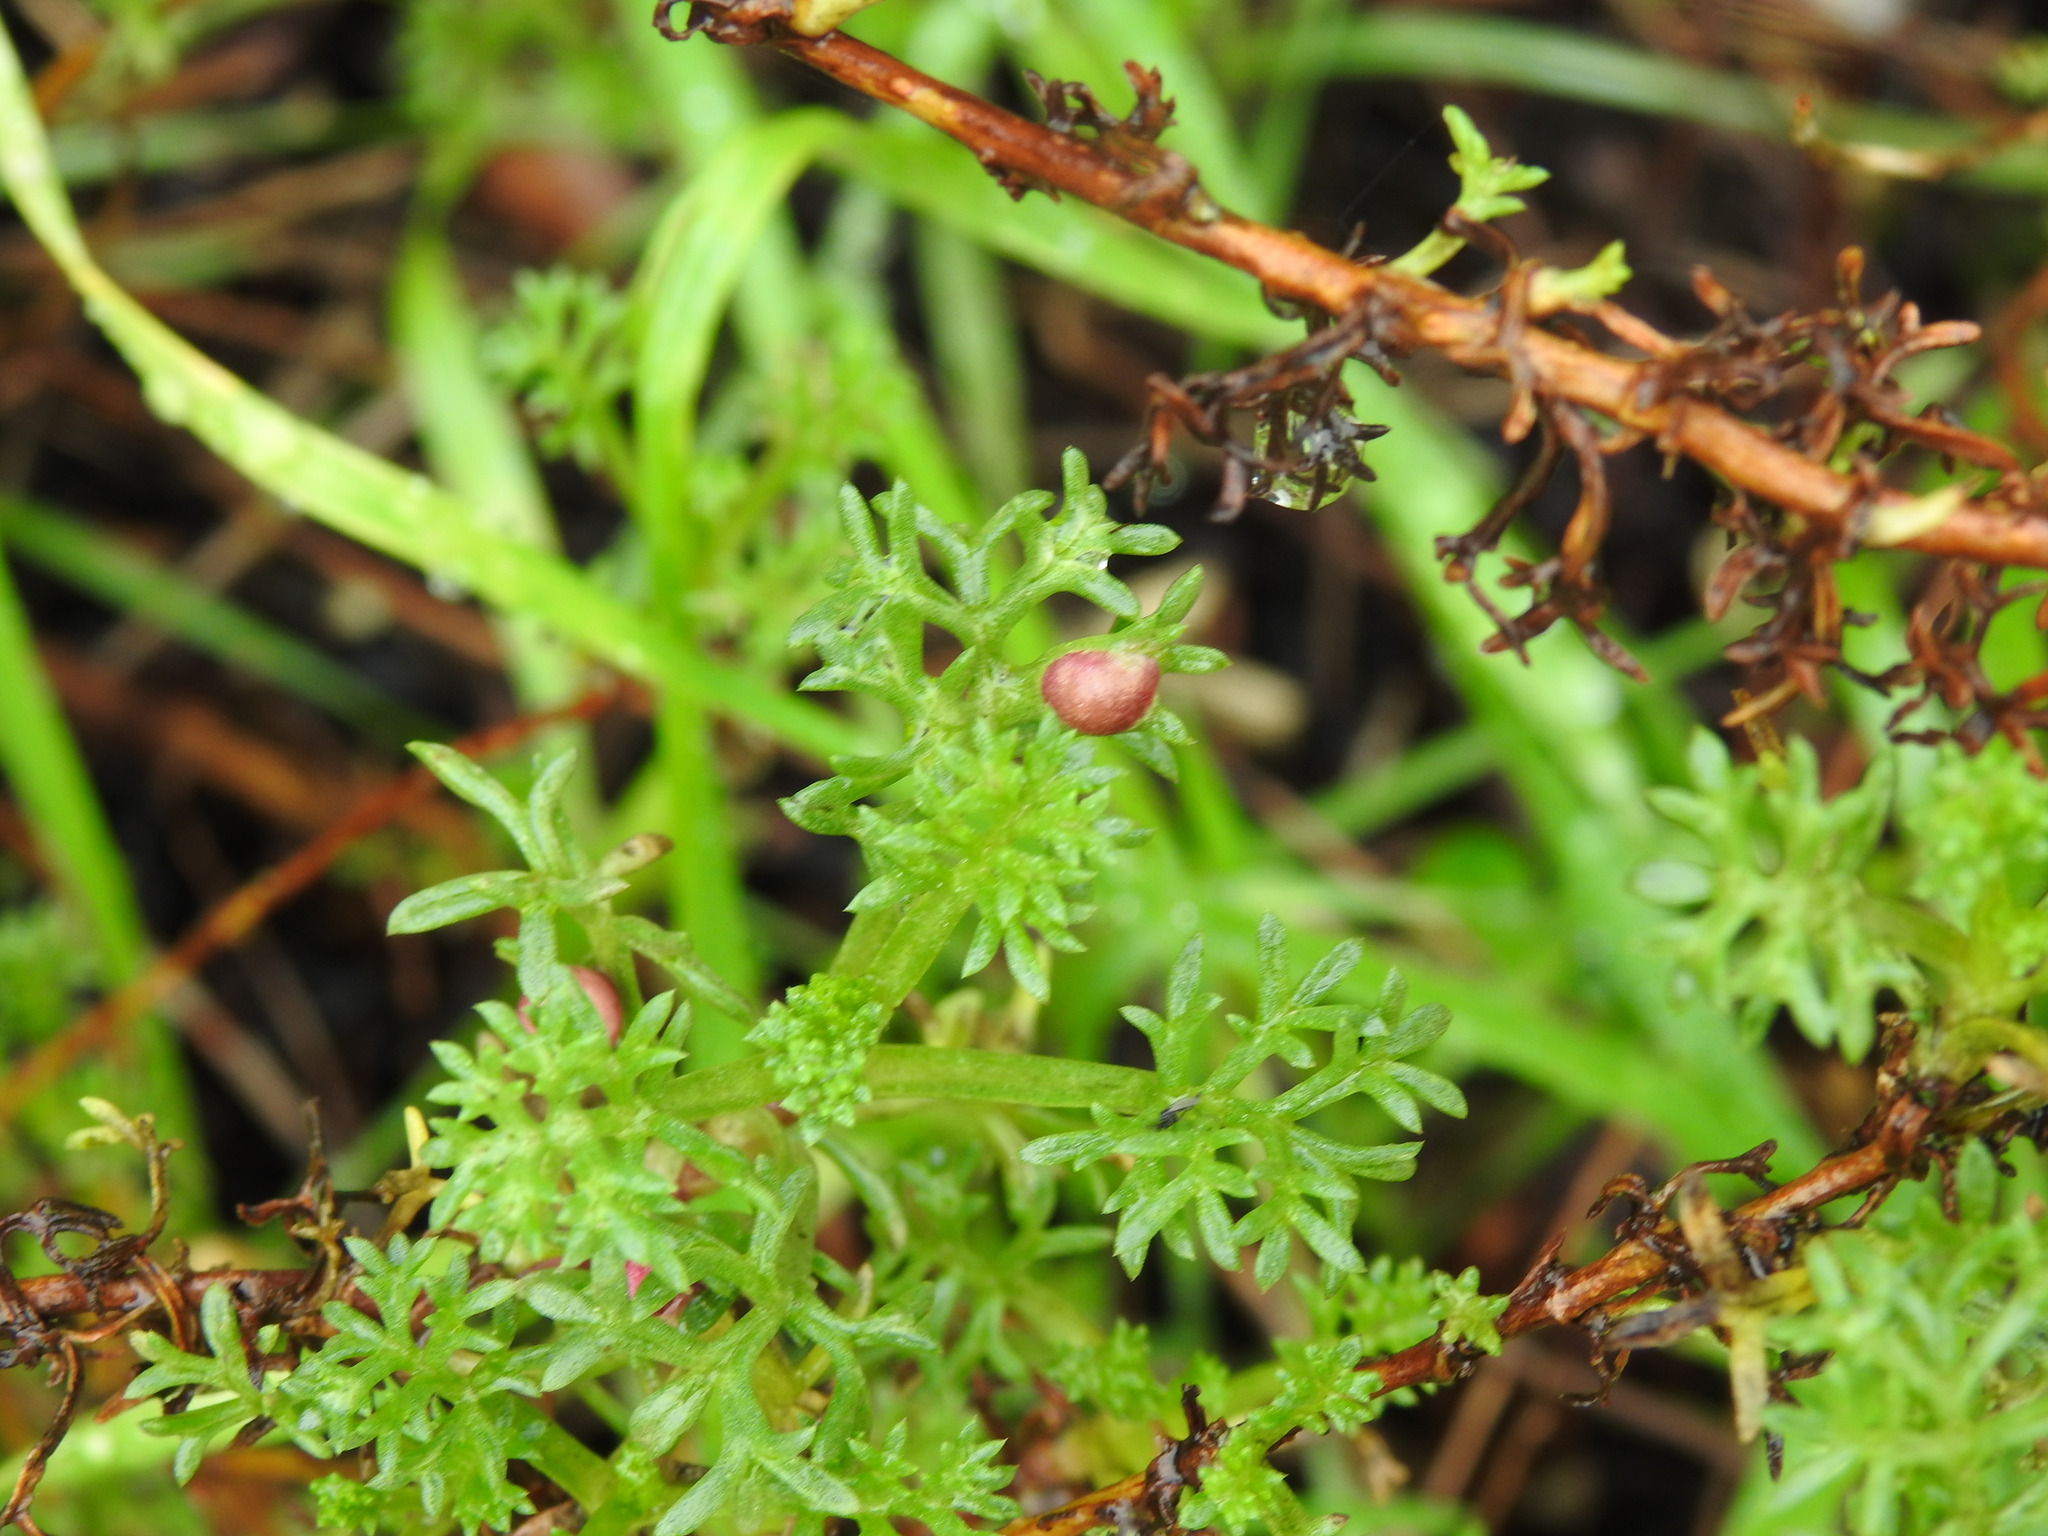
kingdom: Animalia
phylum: Arthropoda
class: Insecta
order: Diptera
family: Cecidomyiidae
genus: Rhopalomyia
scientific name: Rhopalomyia baccarum
